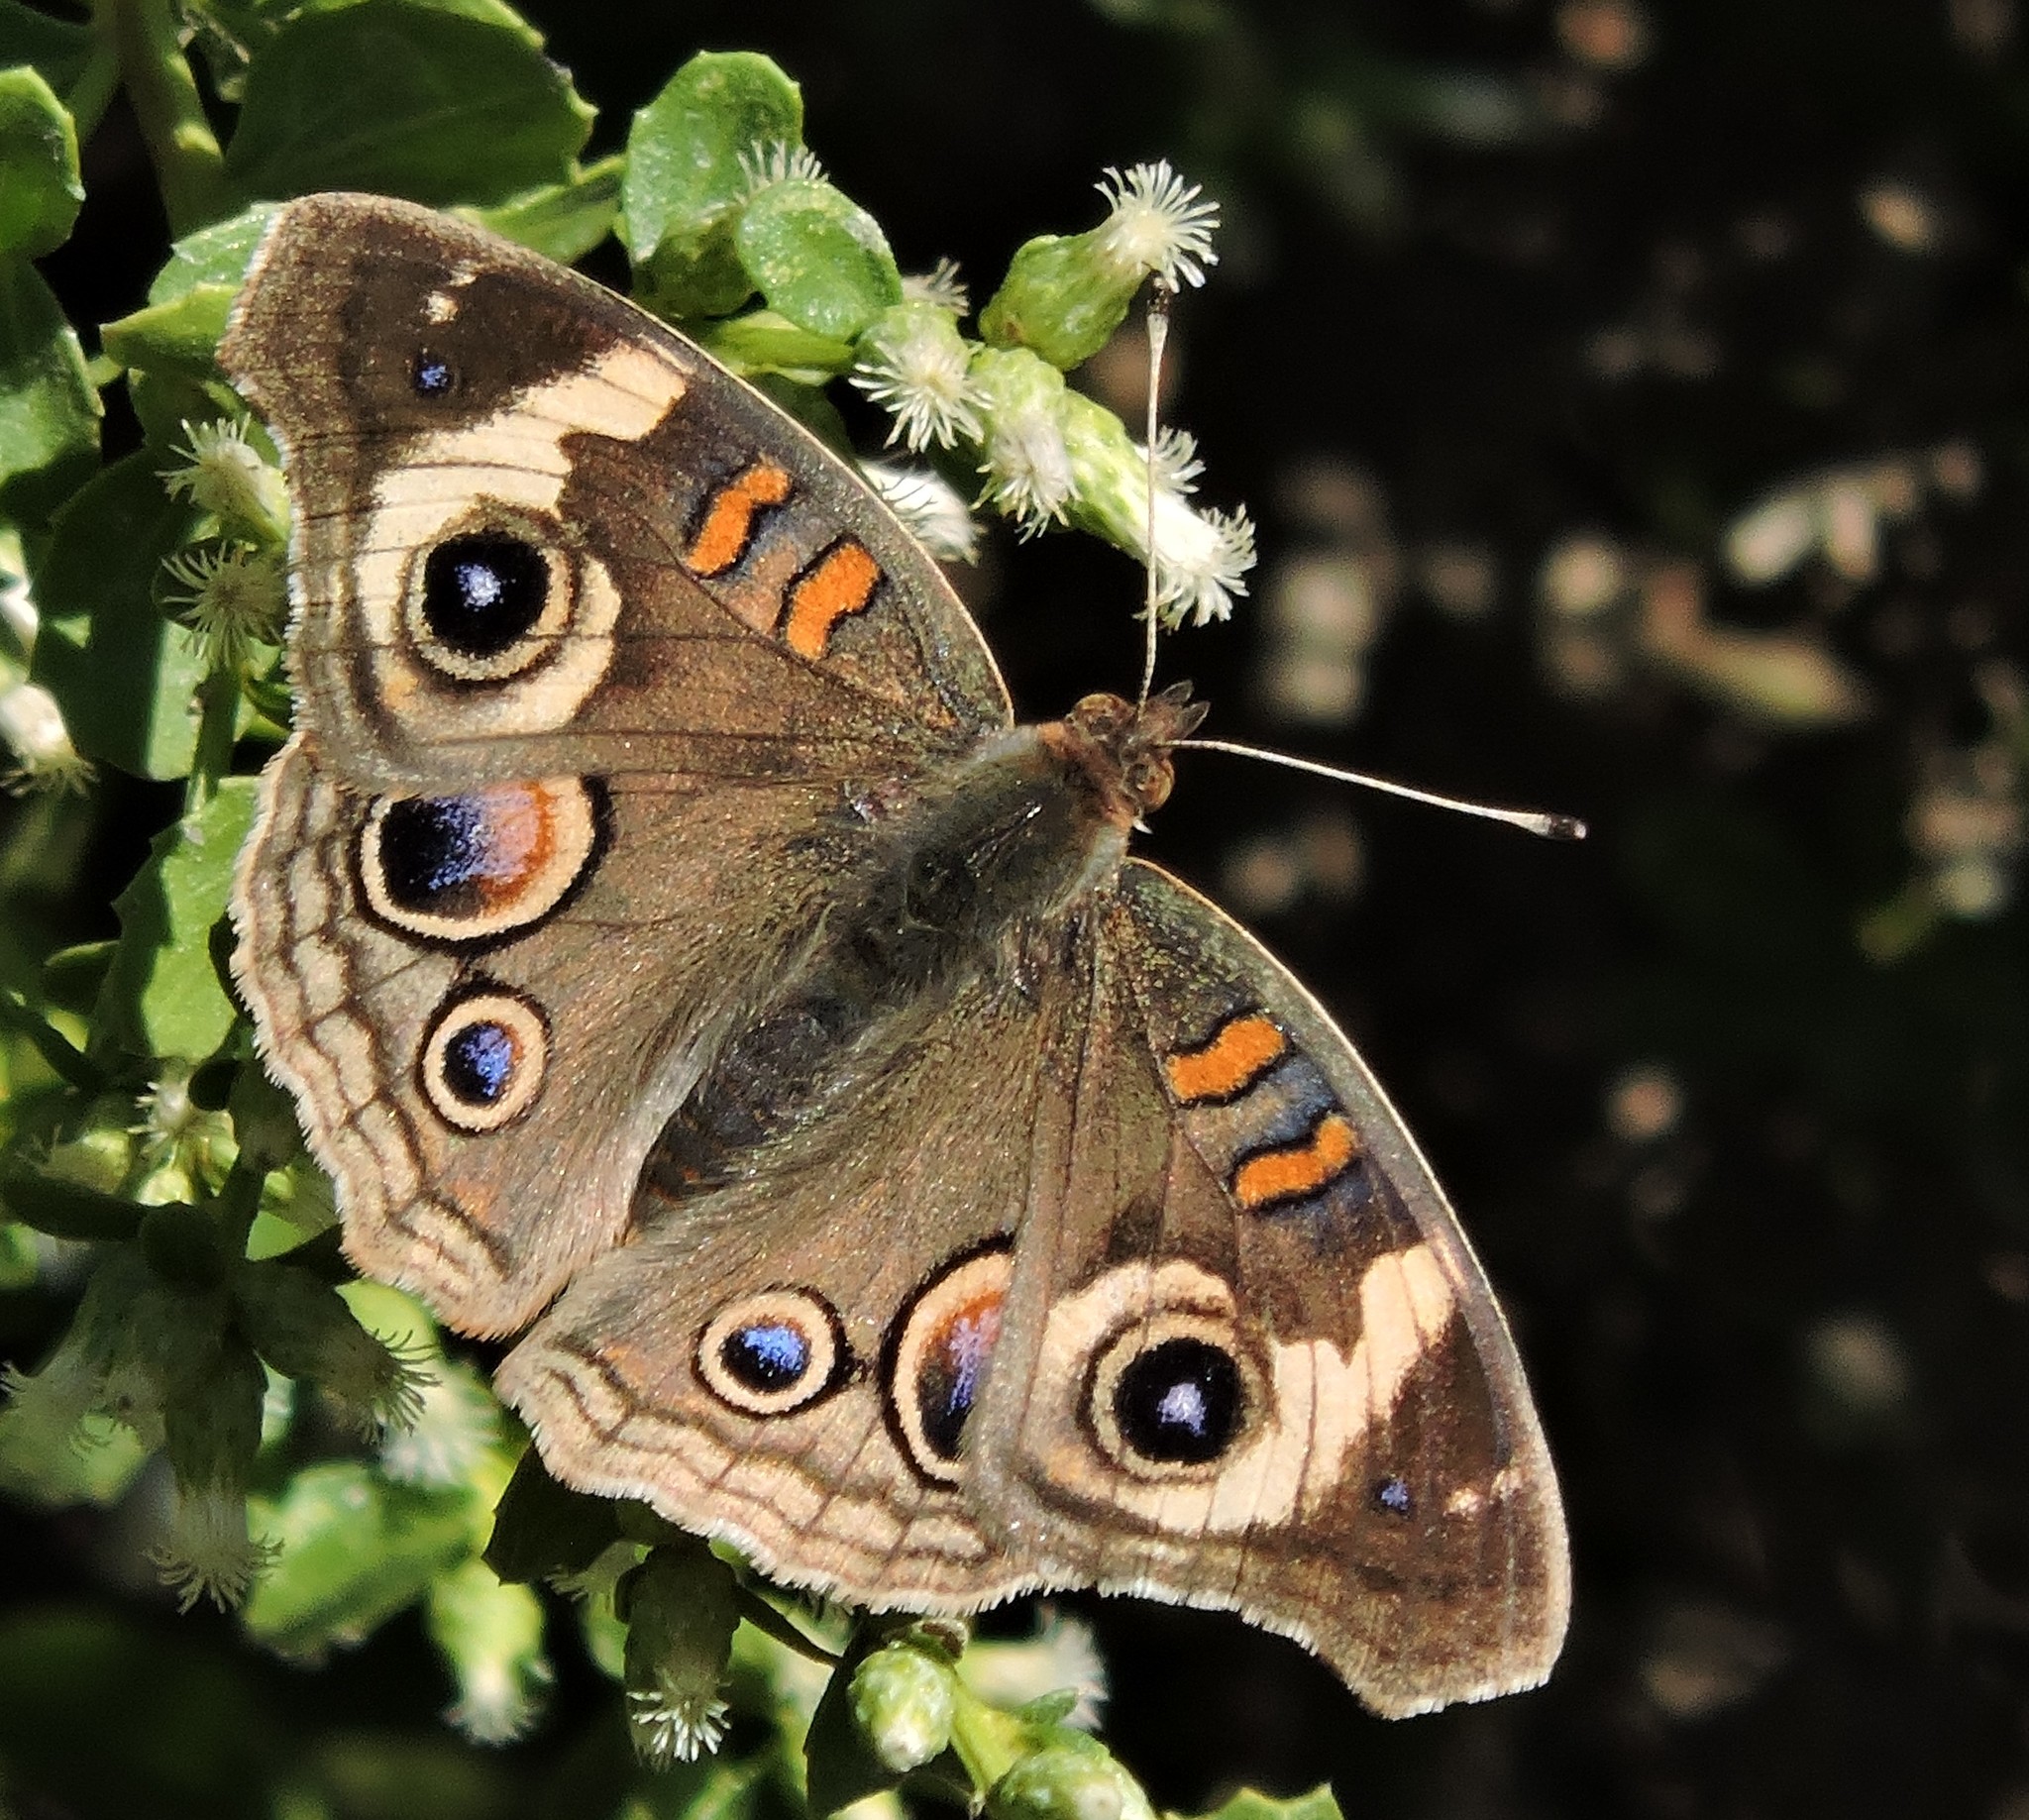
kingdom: Animalia
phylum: Arthropoda
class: Insecta
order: Lepidoptera
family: Nymphalidae
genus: Junonia
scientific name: Junonia grisea
